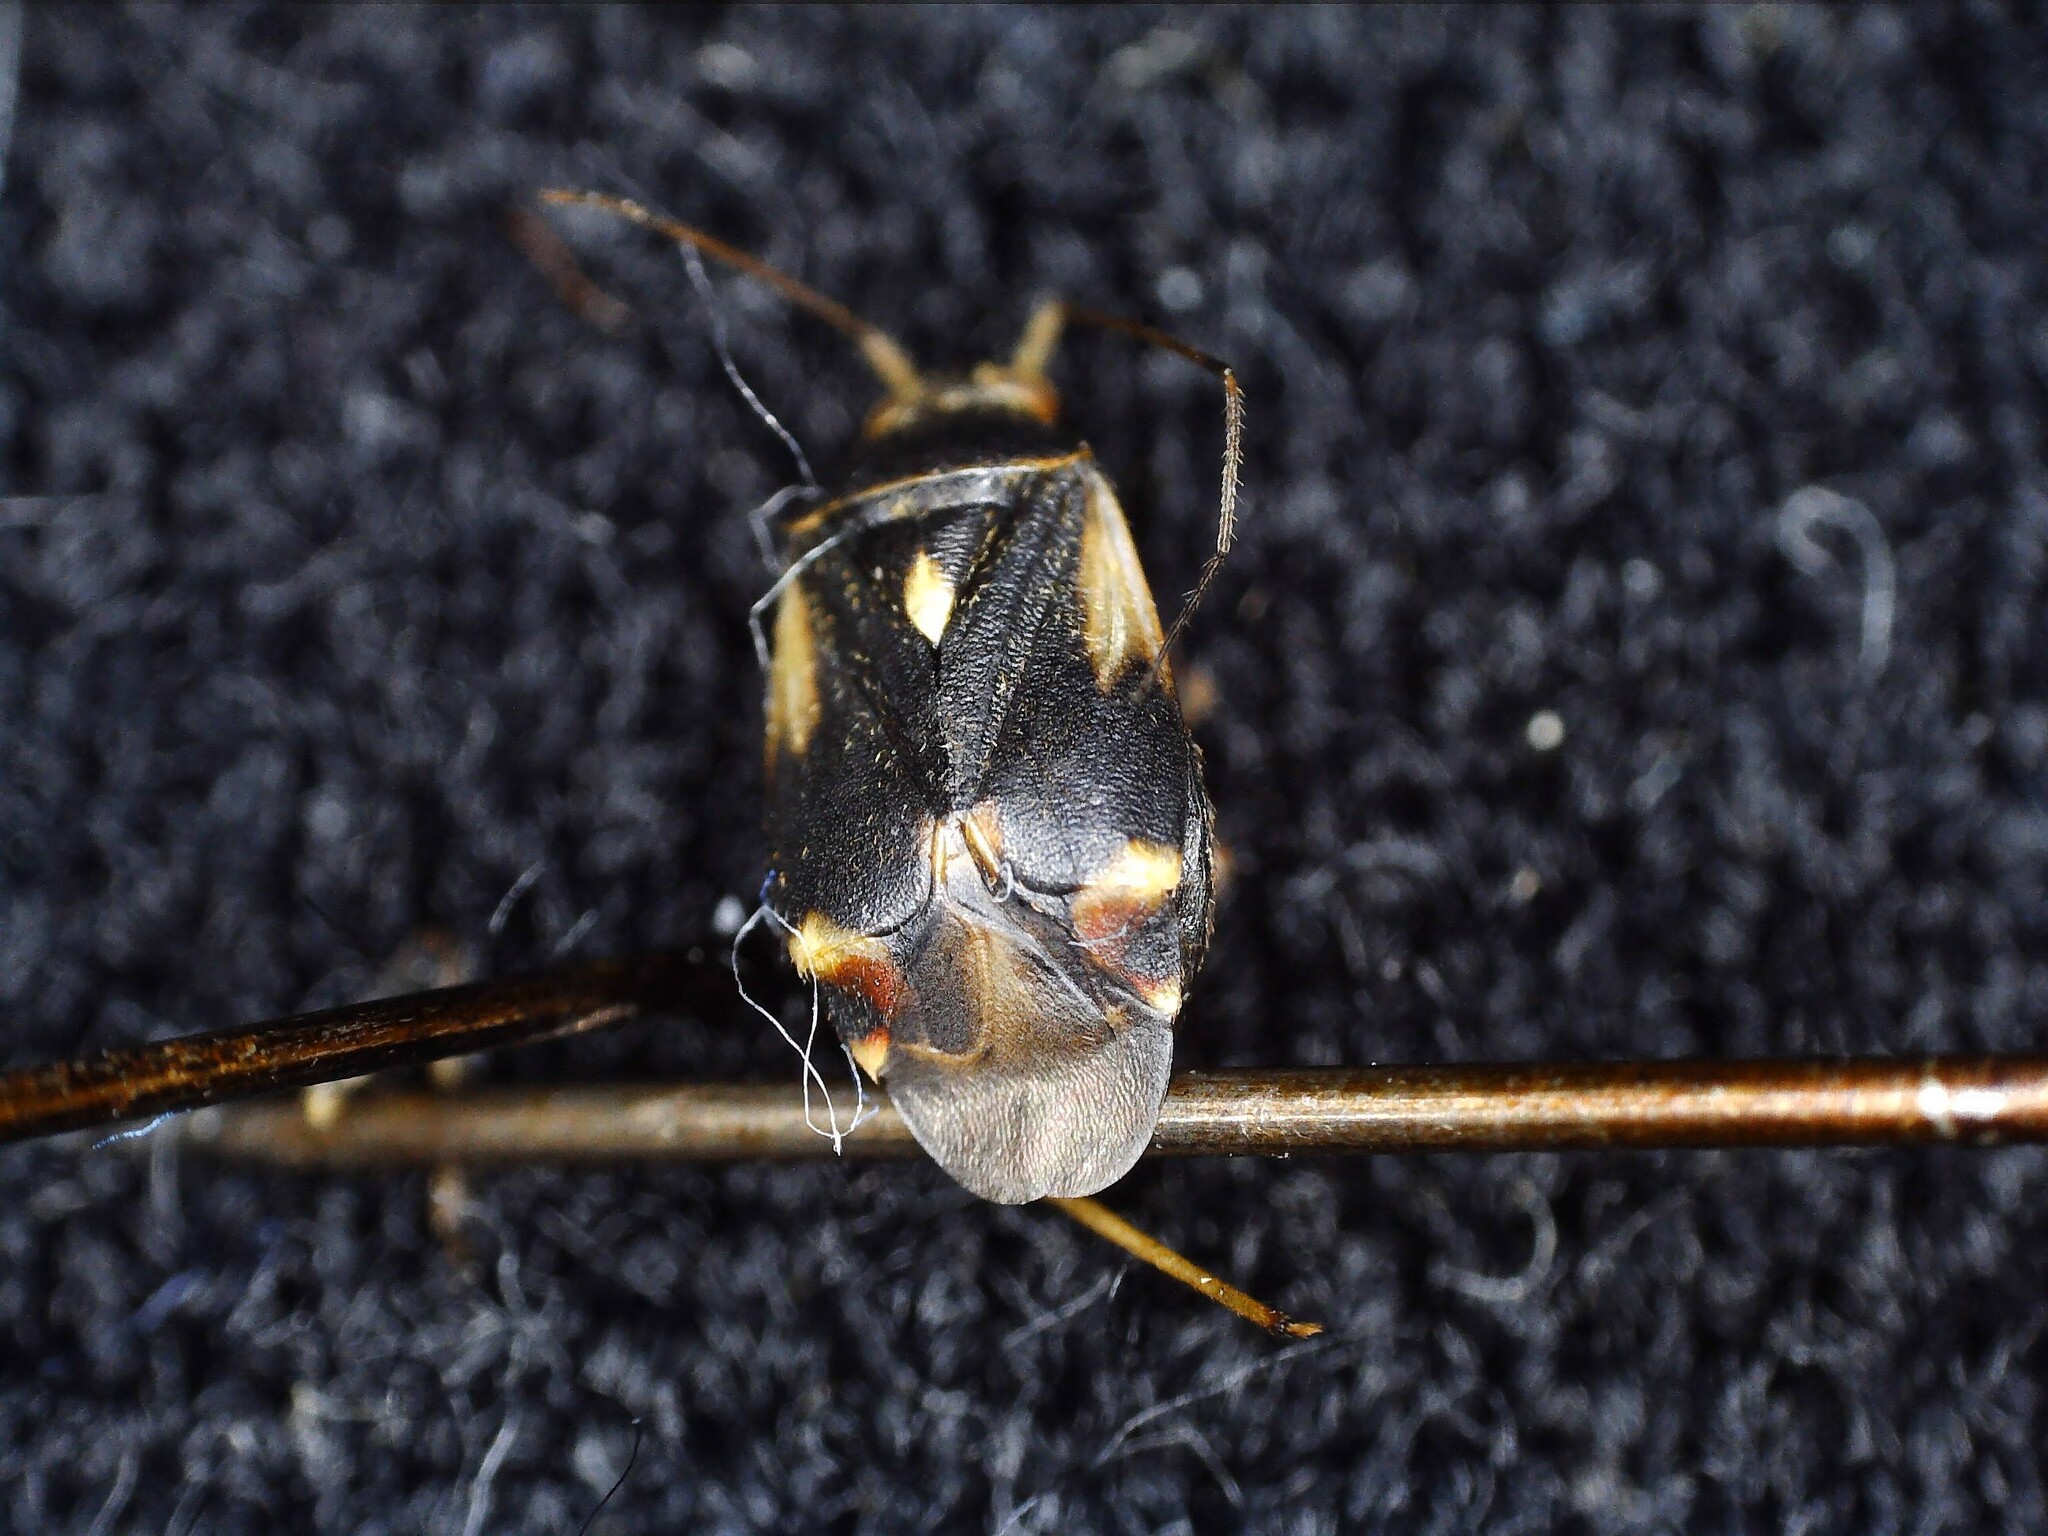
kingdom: Animalia
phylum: Arthropoda
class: Insecta
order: Hemiptera
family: Miridae
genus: Polymerus
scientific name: Polymerus palustris
